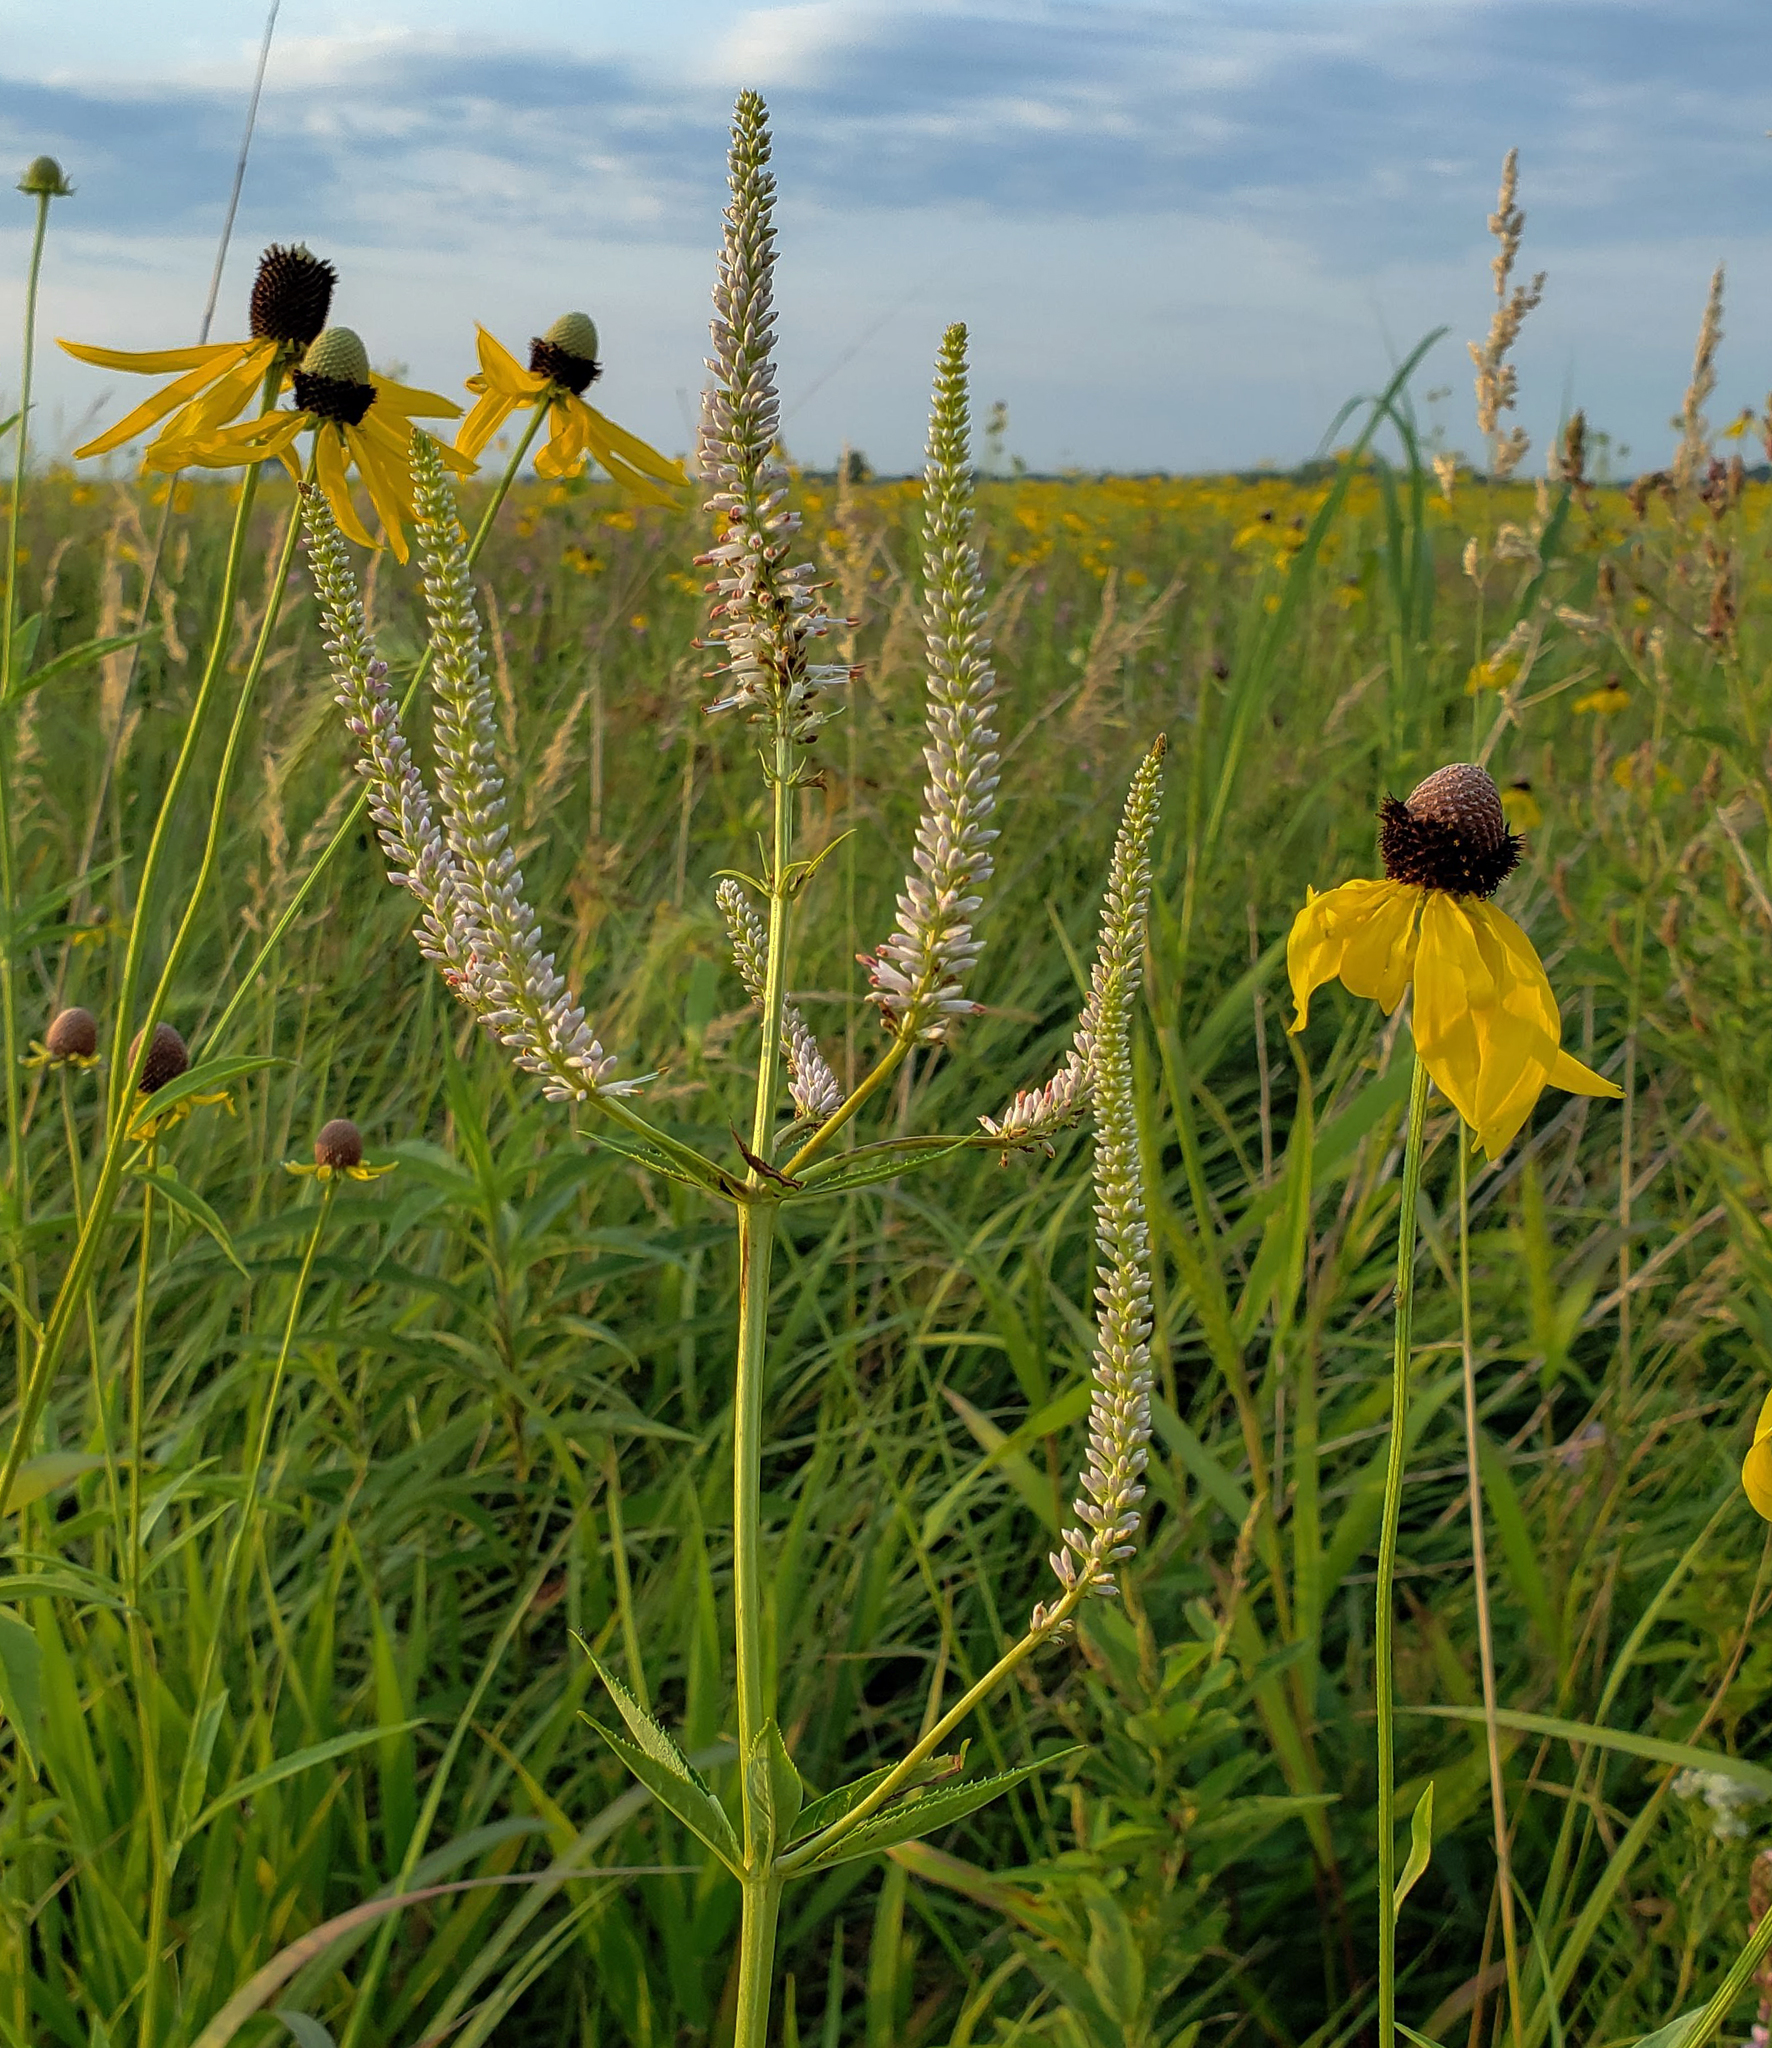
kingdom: Plantae
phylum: Tracheophyta
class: Magnoliopsida
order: Lamiales
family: Plantaginaceae
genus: Veronicastrum
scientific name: Veronicastrum virginicum
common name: Blackroot
